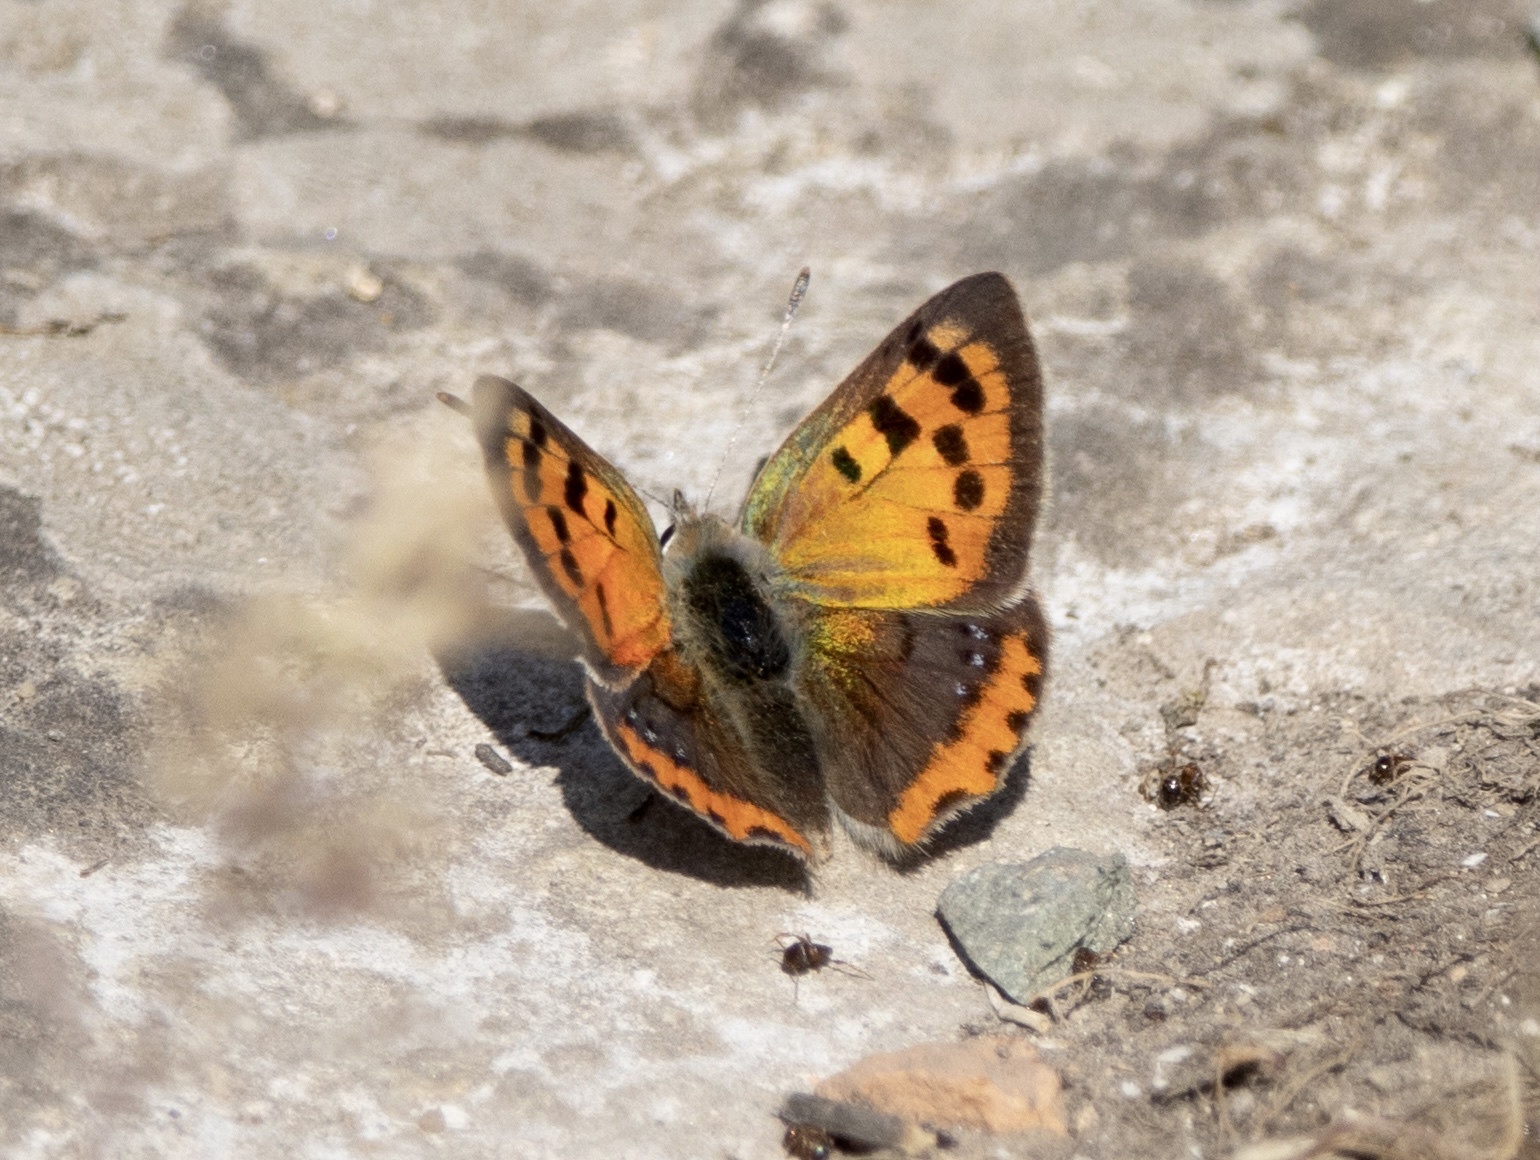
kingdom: Animalia
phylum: Arthropoda
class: Insecta
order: Lepidoptera
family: Lycaenidae
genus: Lycaena
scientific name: Lycaena phlaeas
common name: Small copper
